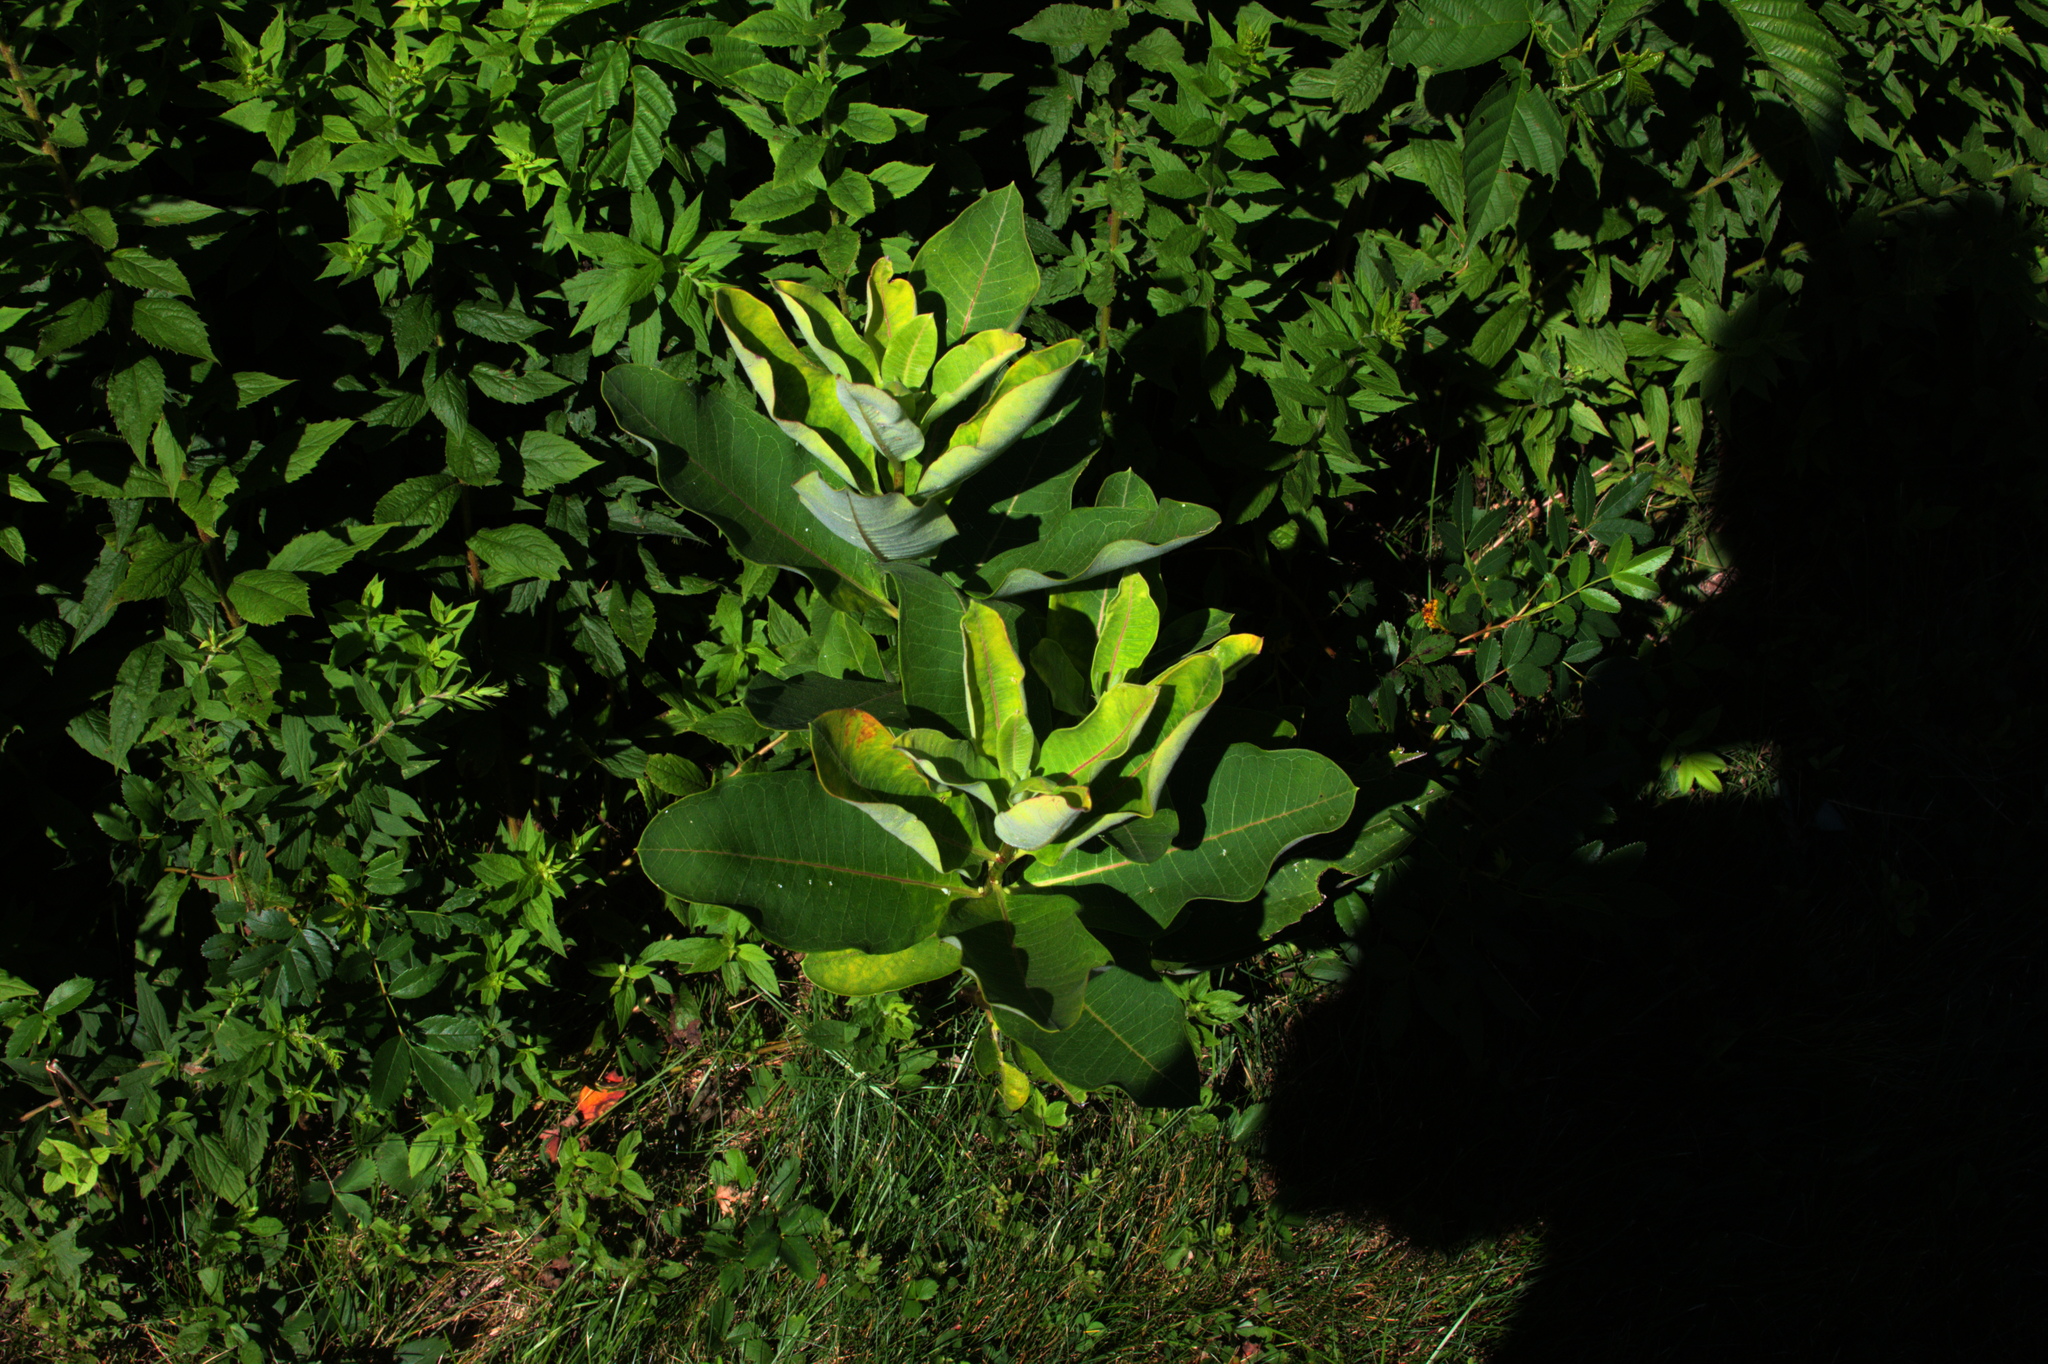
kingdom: Plantae
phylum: Tracheophyta
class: Magnoliopsida
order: Gentianales
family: Apocynaceae
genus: Asclepias
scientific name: Asclepias syriaca
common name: Common milkweed
